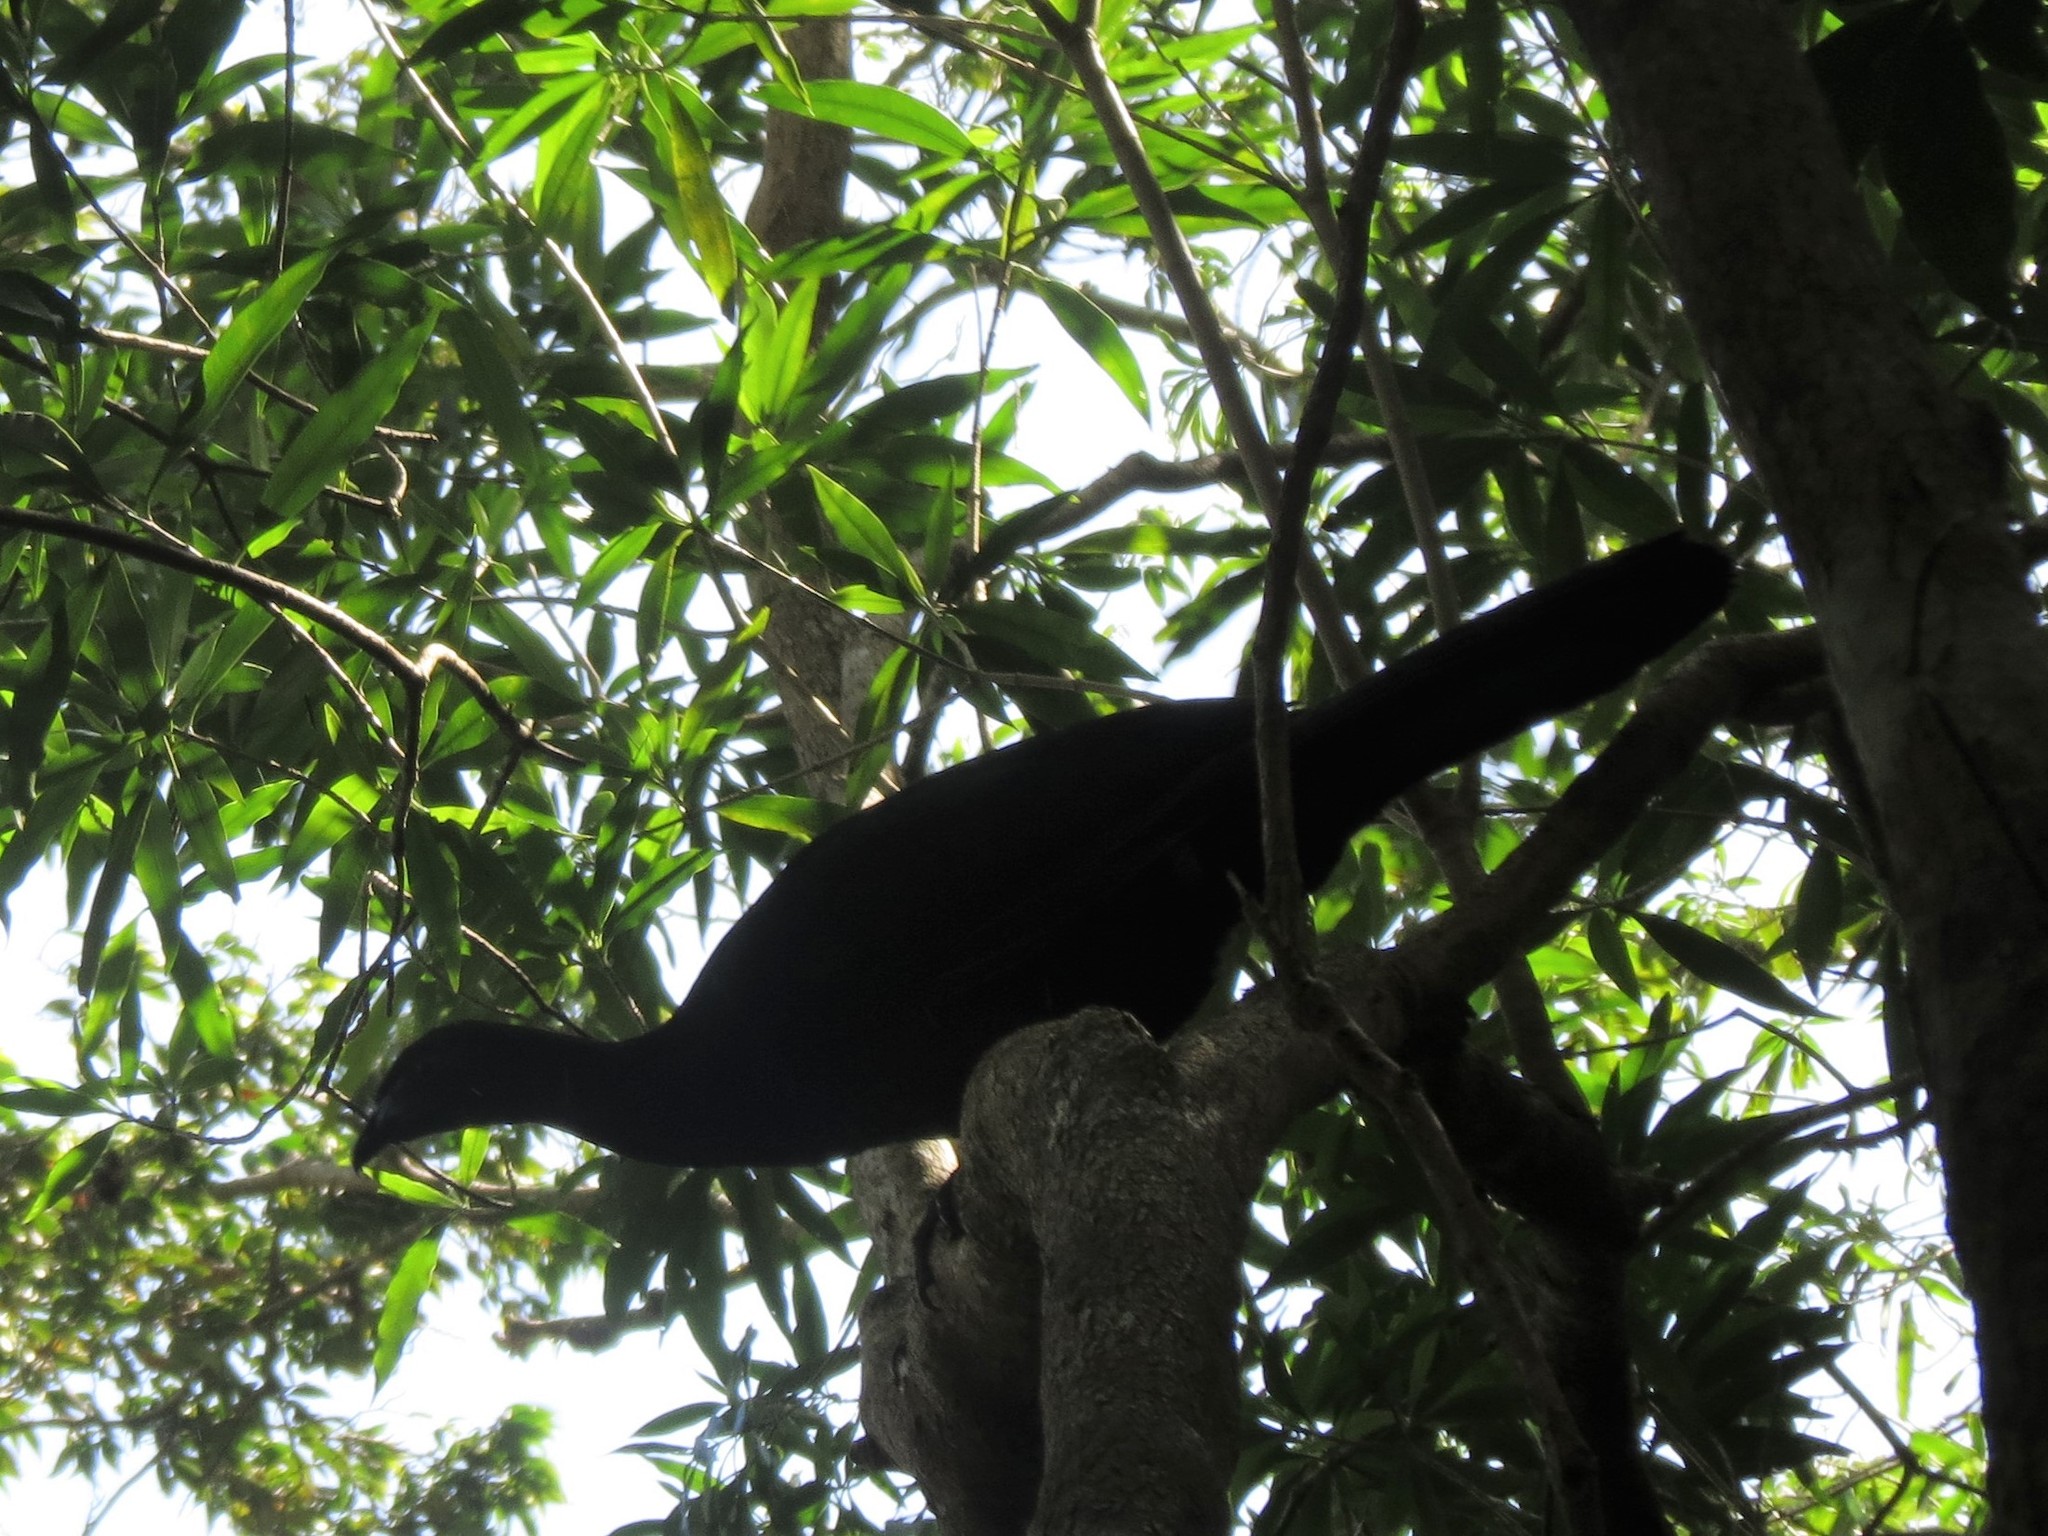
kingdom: Animalia
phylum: Chordata
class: Aves
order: Galliformes
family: Cracidae
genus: Chamaepetes
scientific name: Chamaepetes unicolor
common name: Black guan
